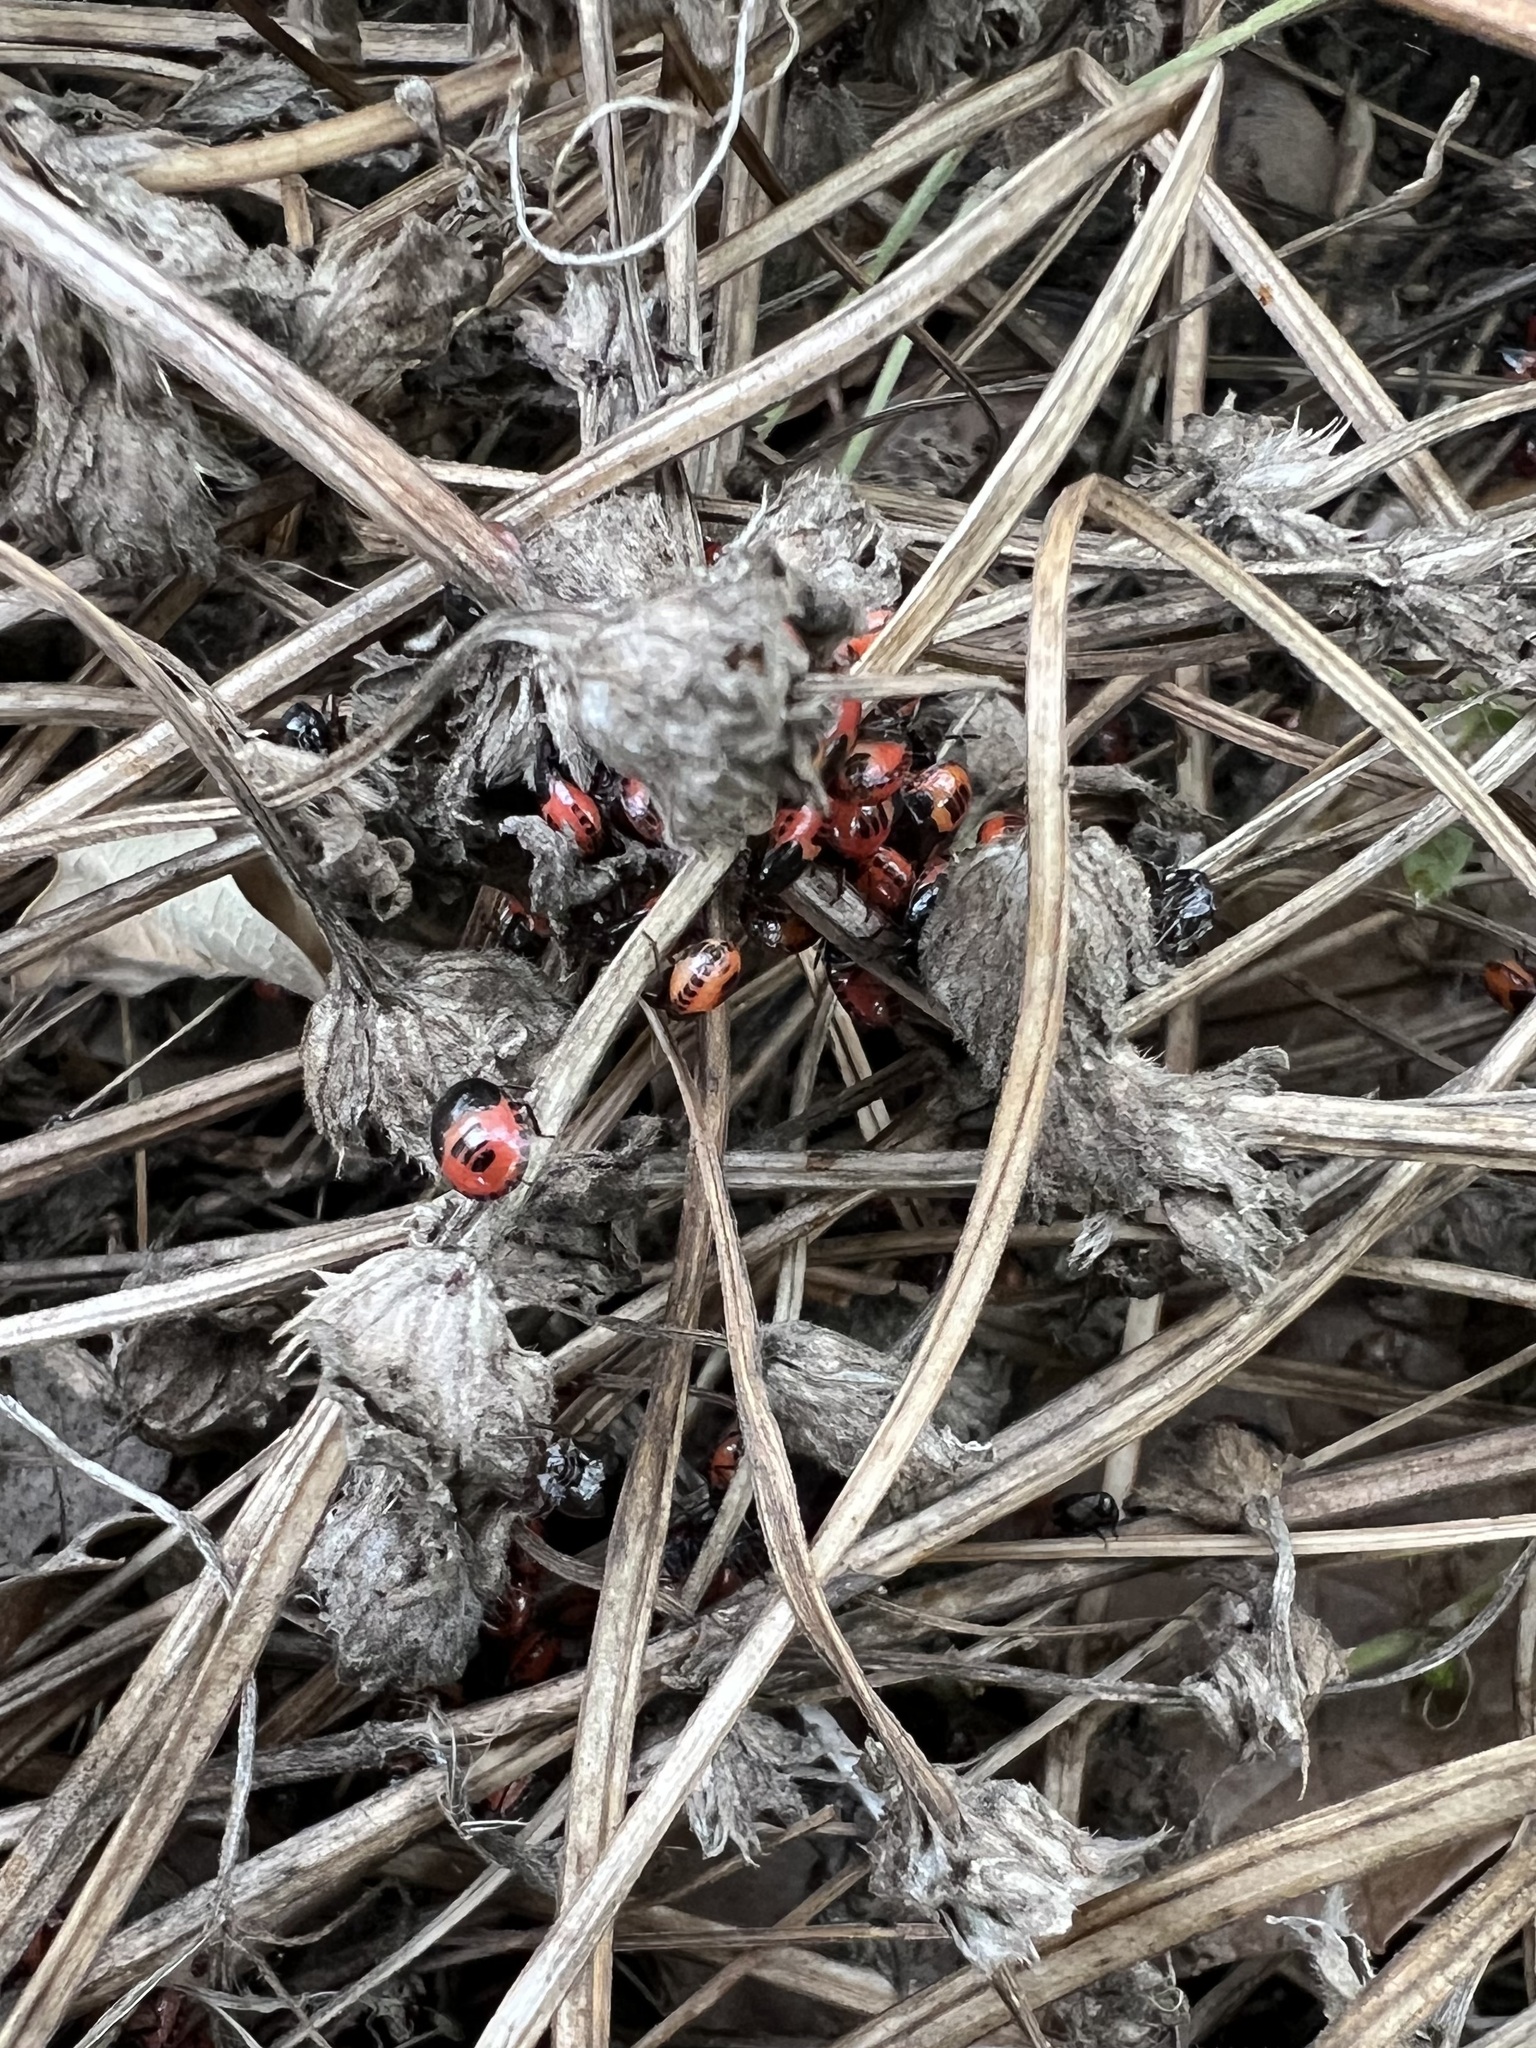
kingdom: Animalia
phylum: Arthropoda
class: Insecta
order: Hemiptera
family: Cydnidae
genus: Sehirus
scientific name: Sehirus cinctus
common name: White-margined burrower bug
